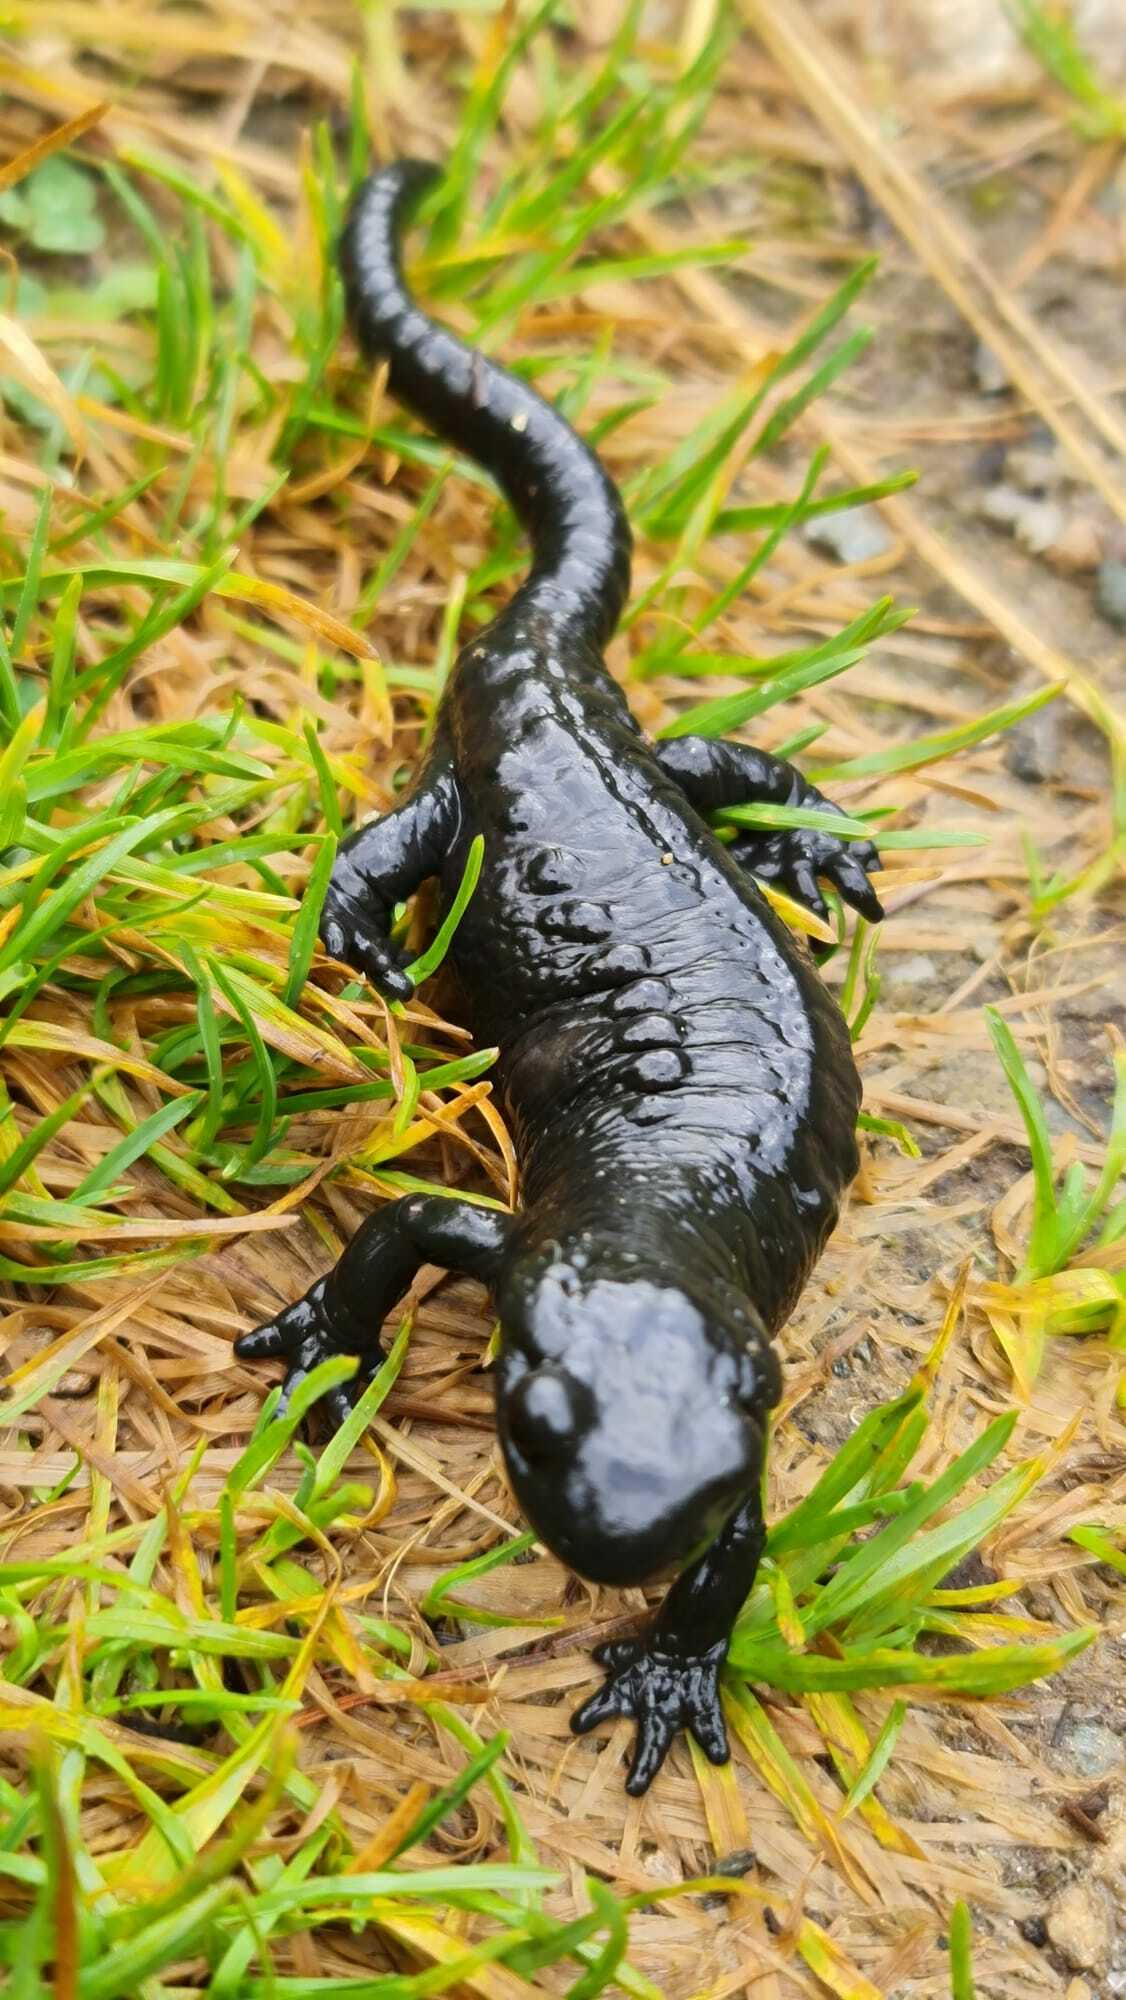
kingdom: Animalia
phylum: Chordata
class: Amphibia
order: Caudata
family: Salamandridae
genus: Salamandra
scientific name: Salamandra atra
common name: Alpine salamander
